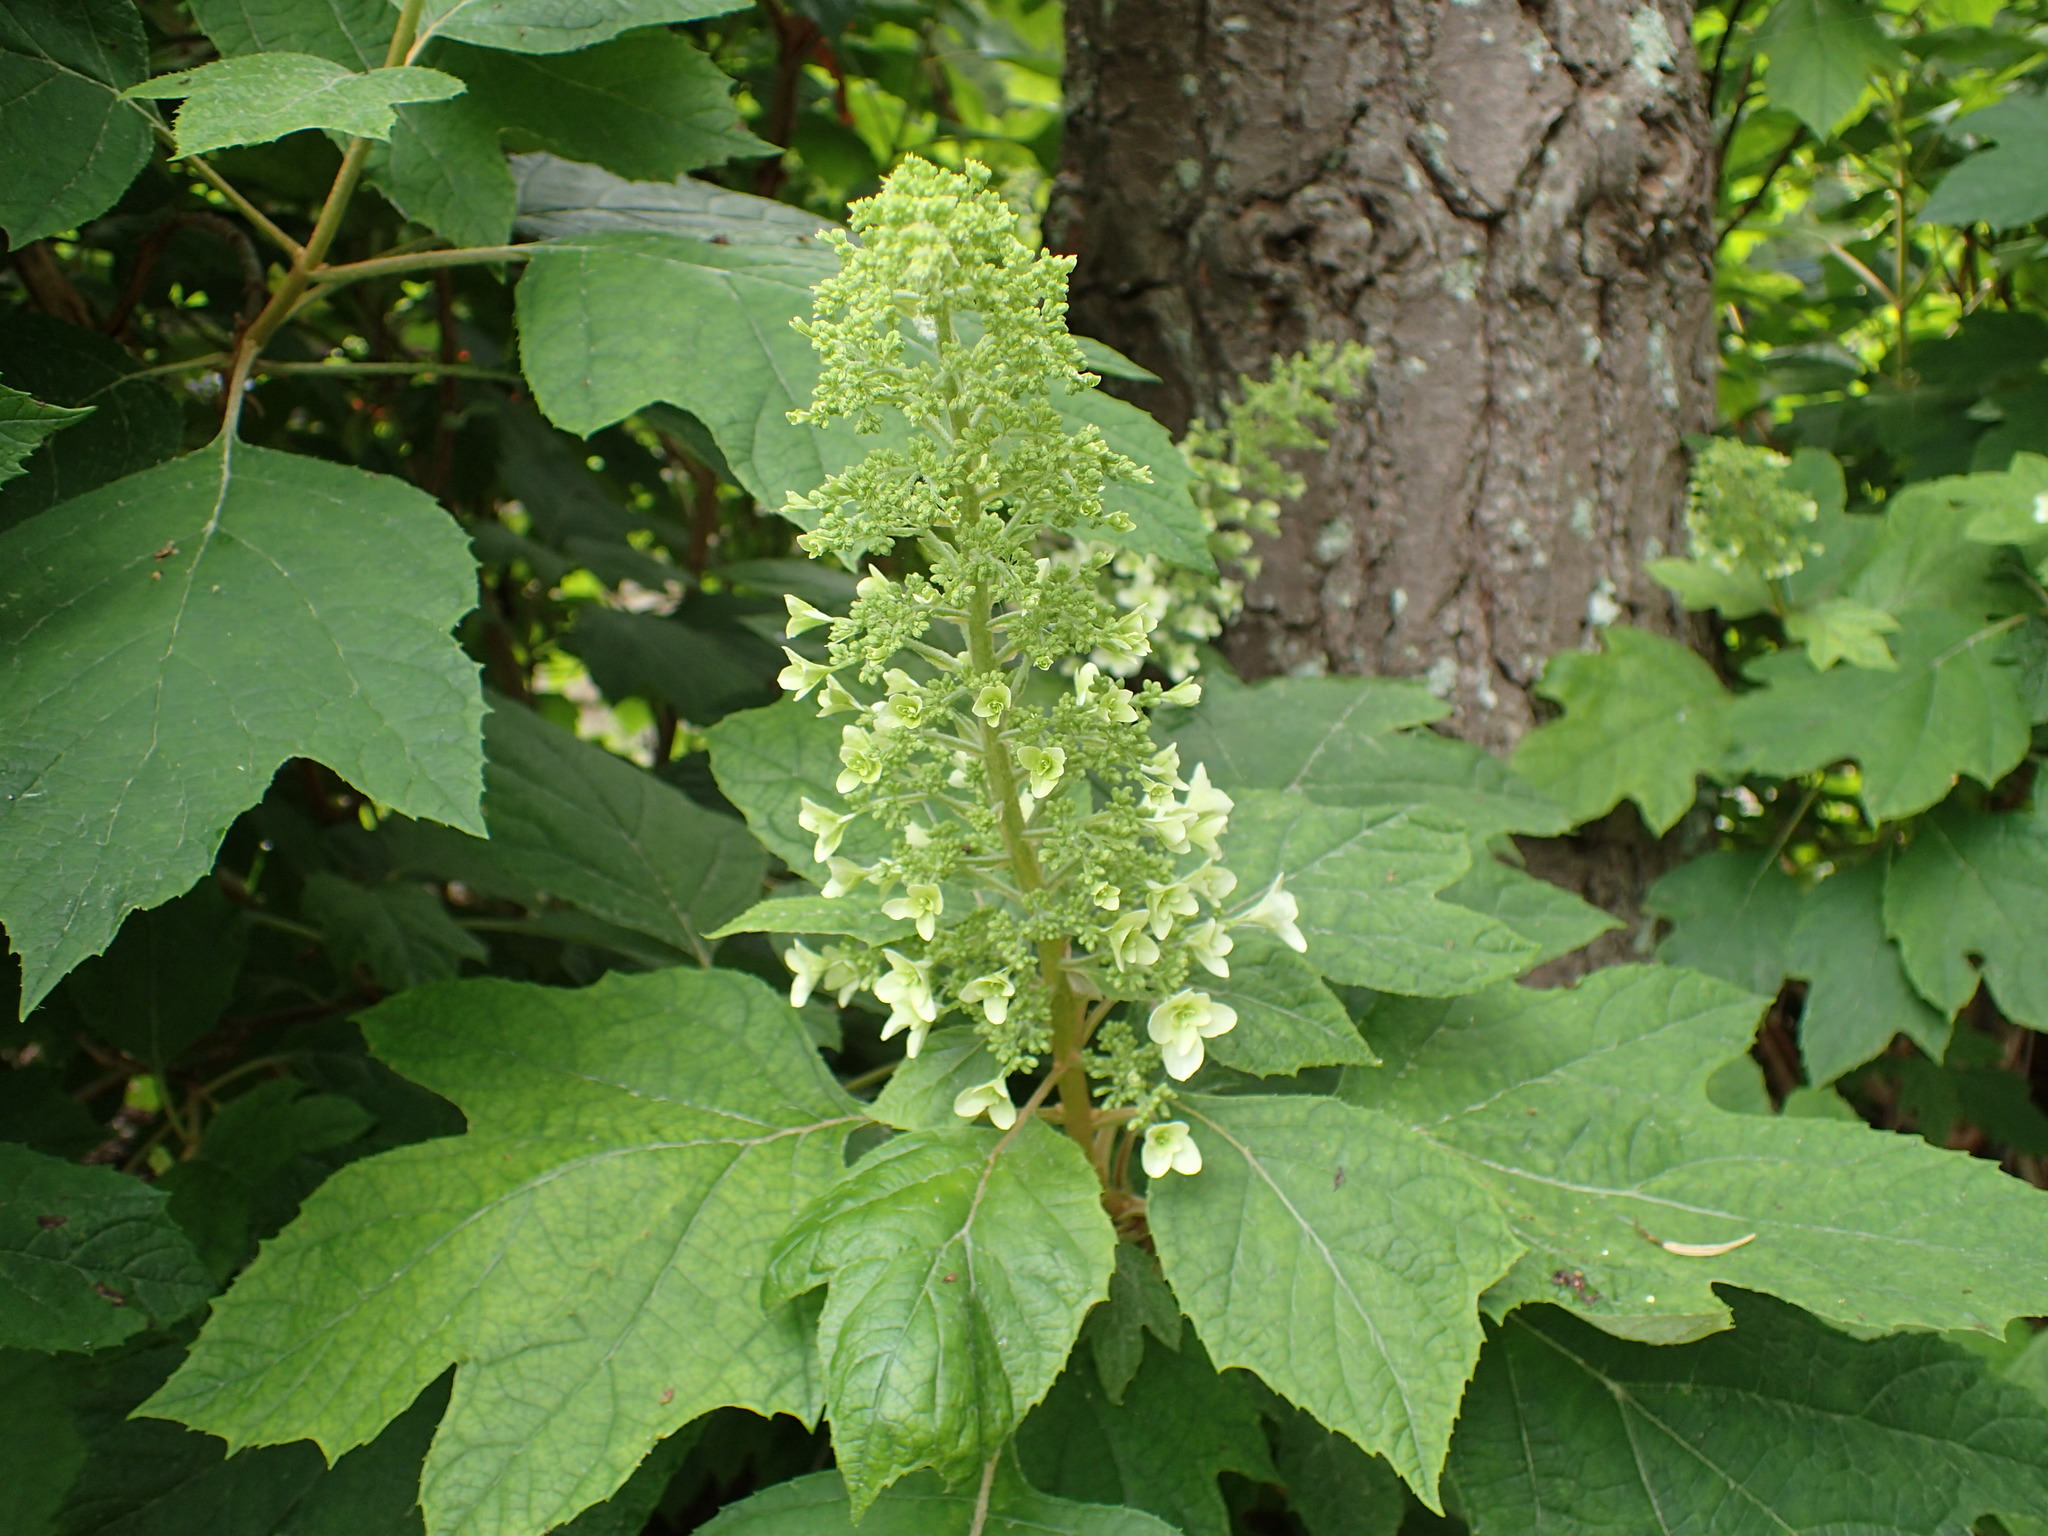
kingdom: Plantae
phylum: Tracheophyta
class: Magnoliopsida
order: Cornales
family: Hydrangeaceae
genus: Hydrangea
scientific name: Hydrangea quercifolia
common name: Oak-leaf hydrangea
